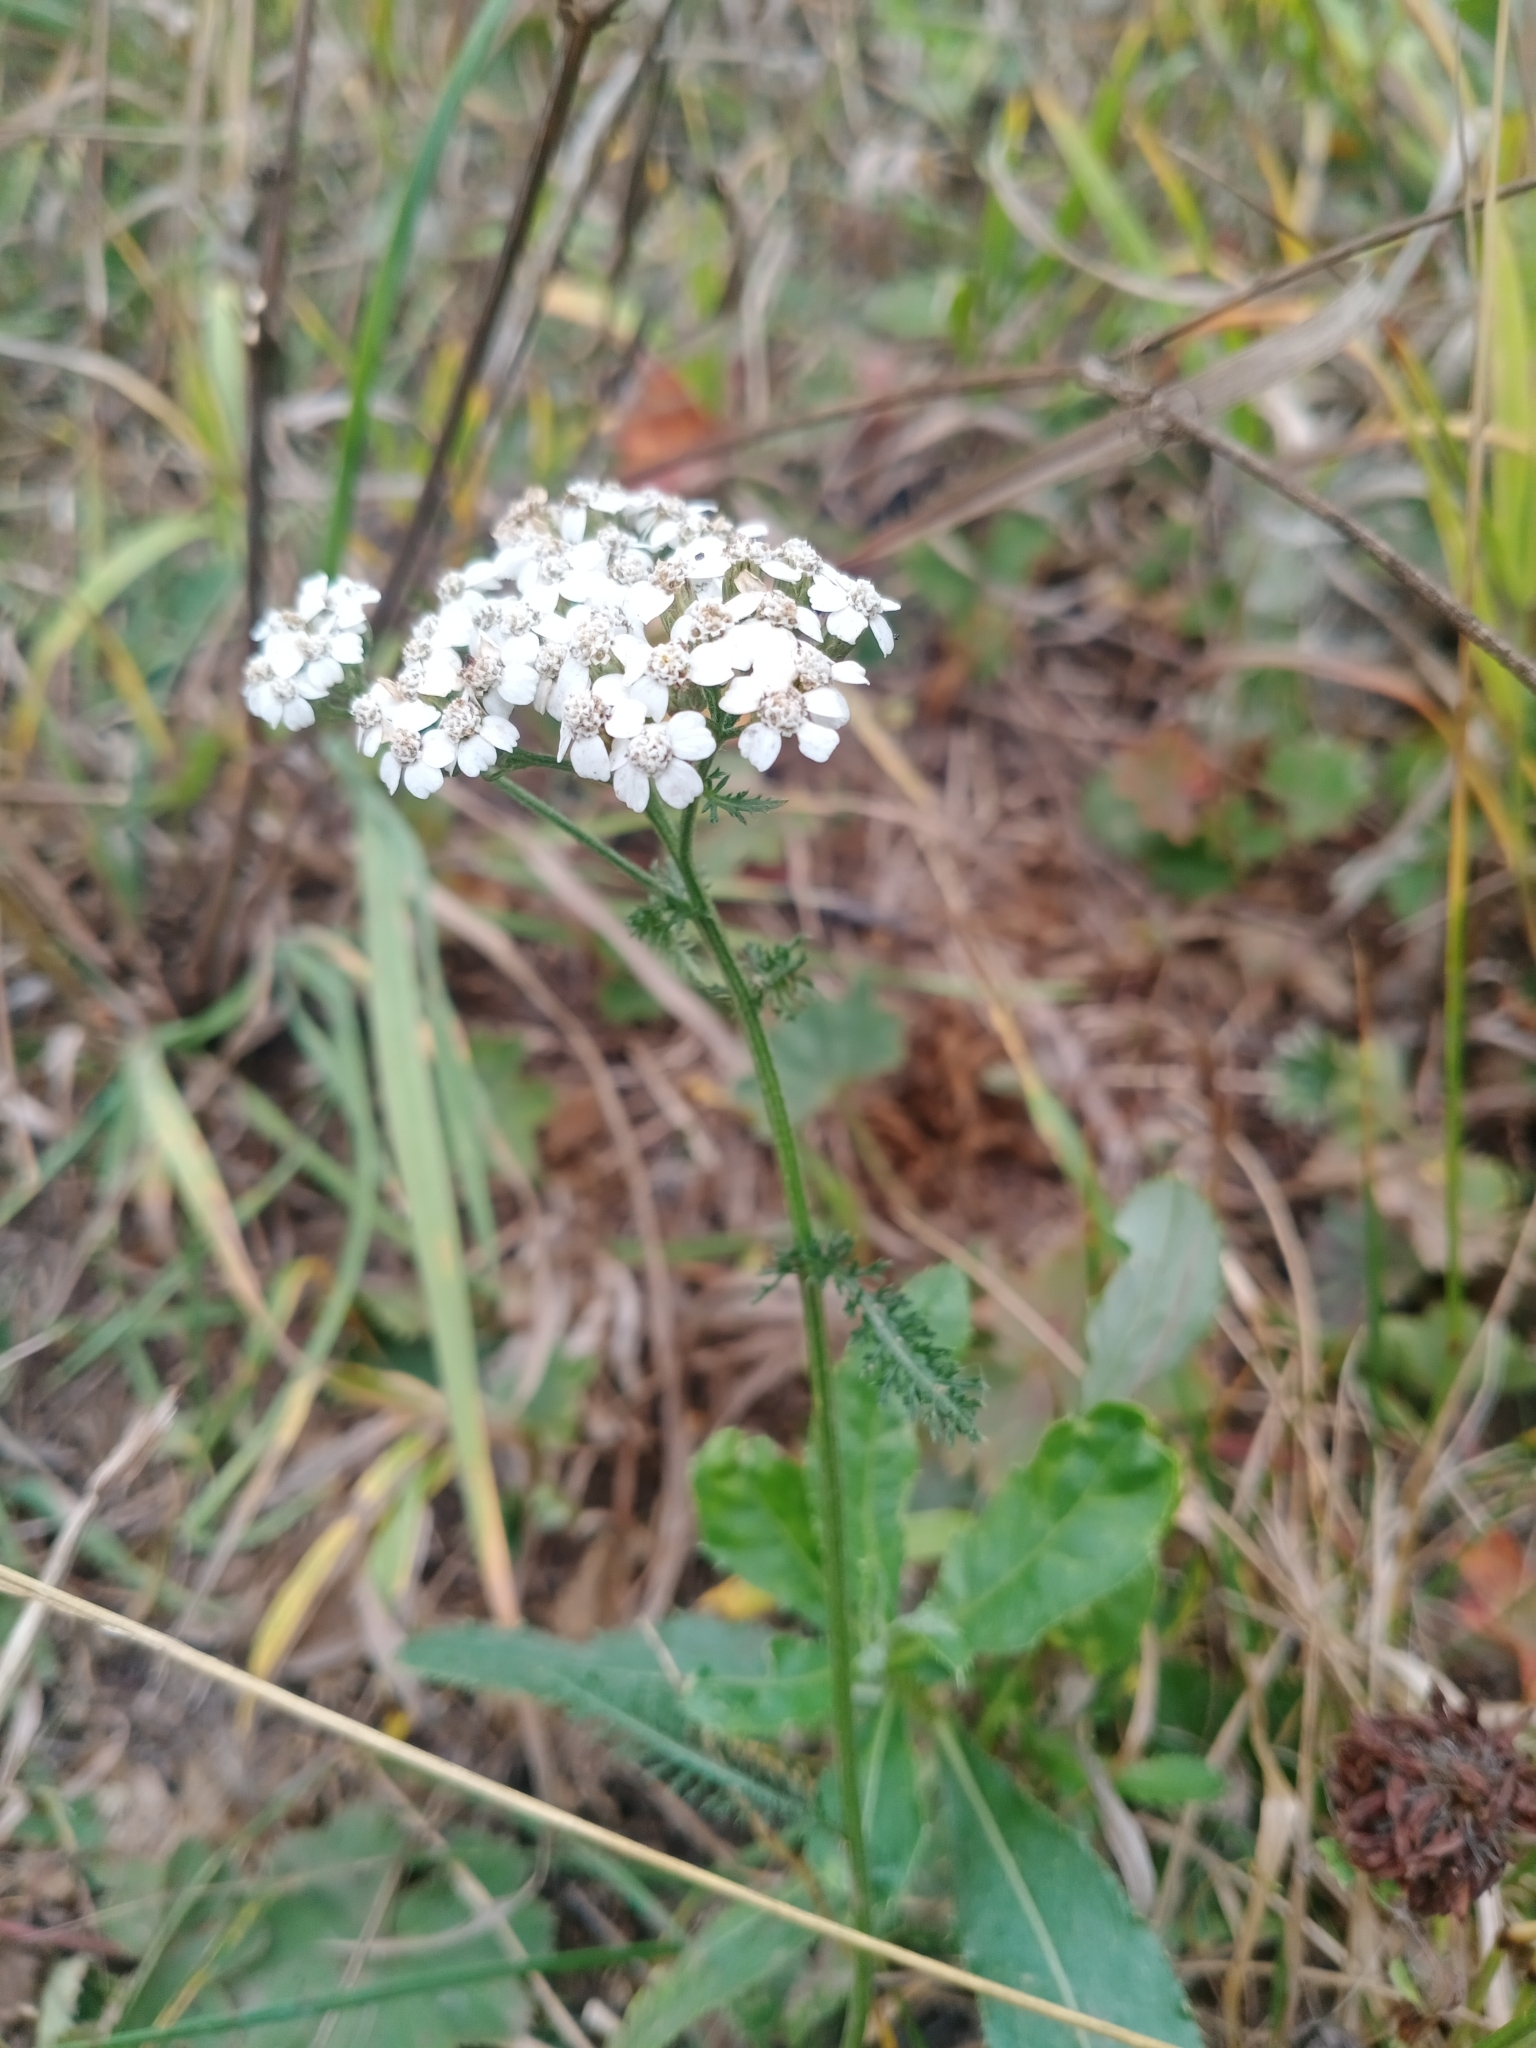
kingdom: Plantae
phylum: Tracheophyta
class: Magnoliopsida
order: Asterales
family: Asteraceae
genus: Achillea
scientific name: Achillea millefolium
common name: Yarrow
